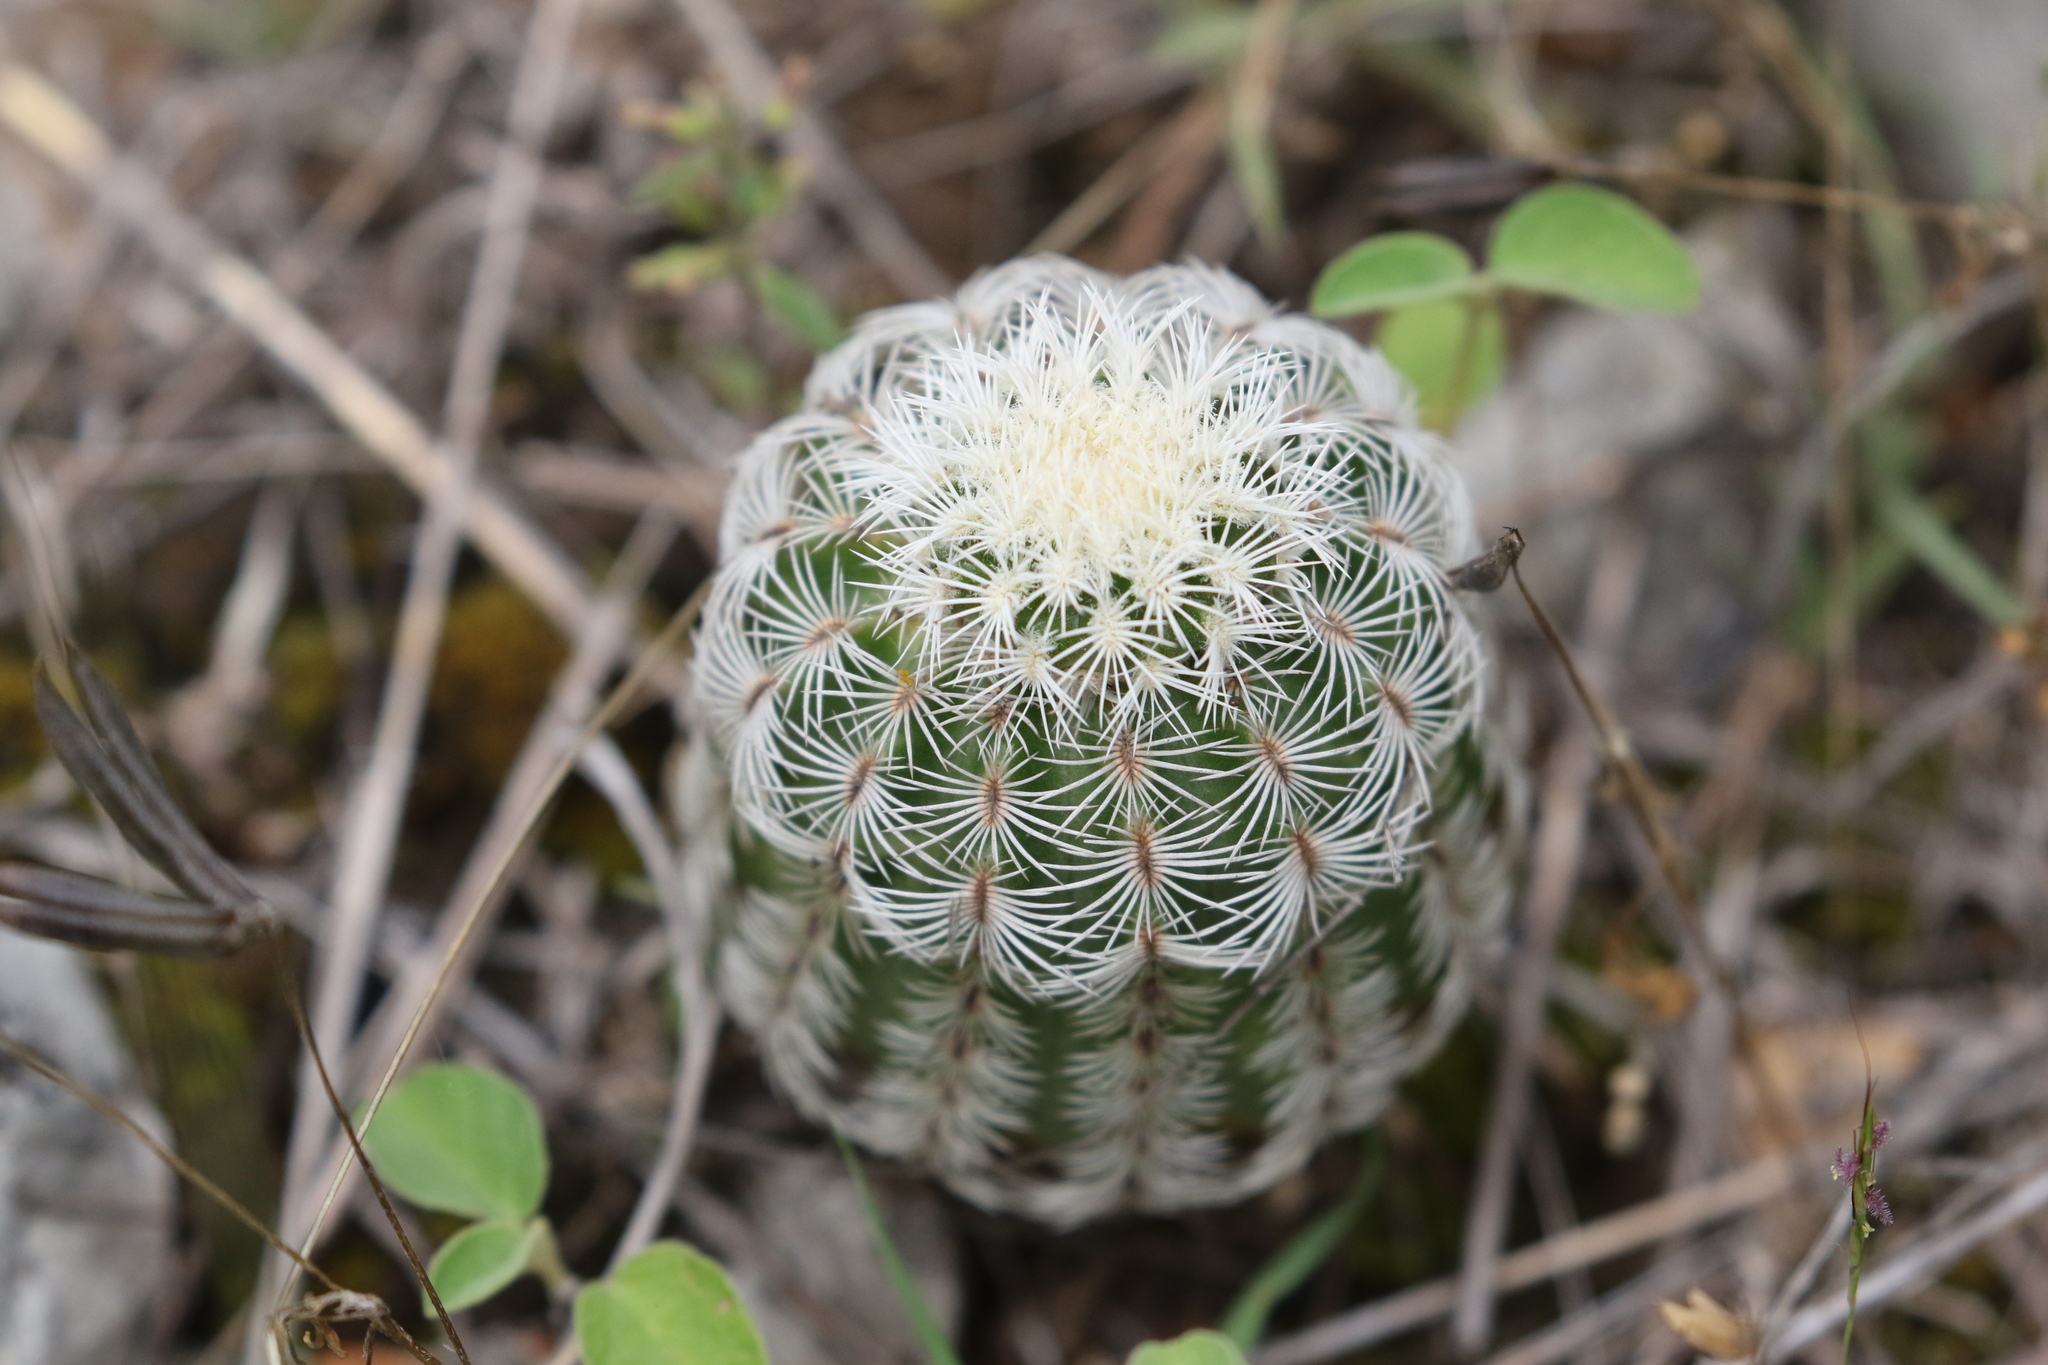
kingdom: Plantae
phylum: Tracheophyta
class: Magnoliopsida
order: Caryophyllales
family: Cactaceae
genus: Echinocereus
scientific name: Echinocereus reichenbachii
